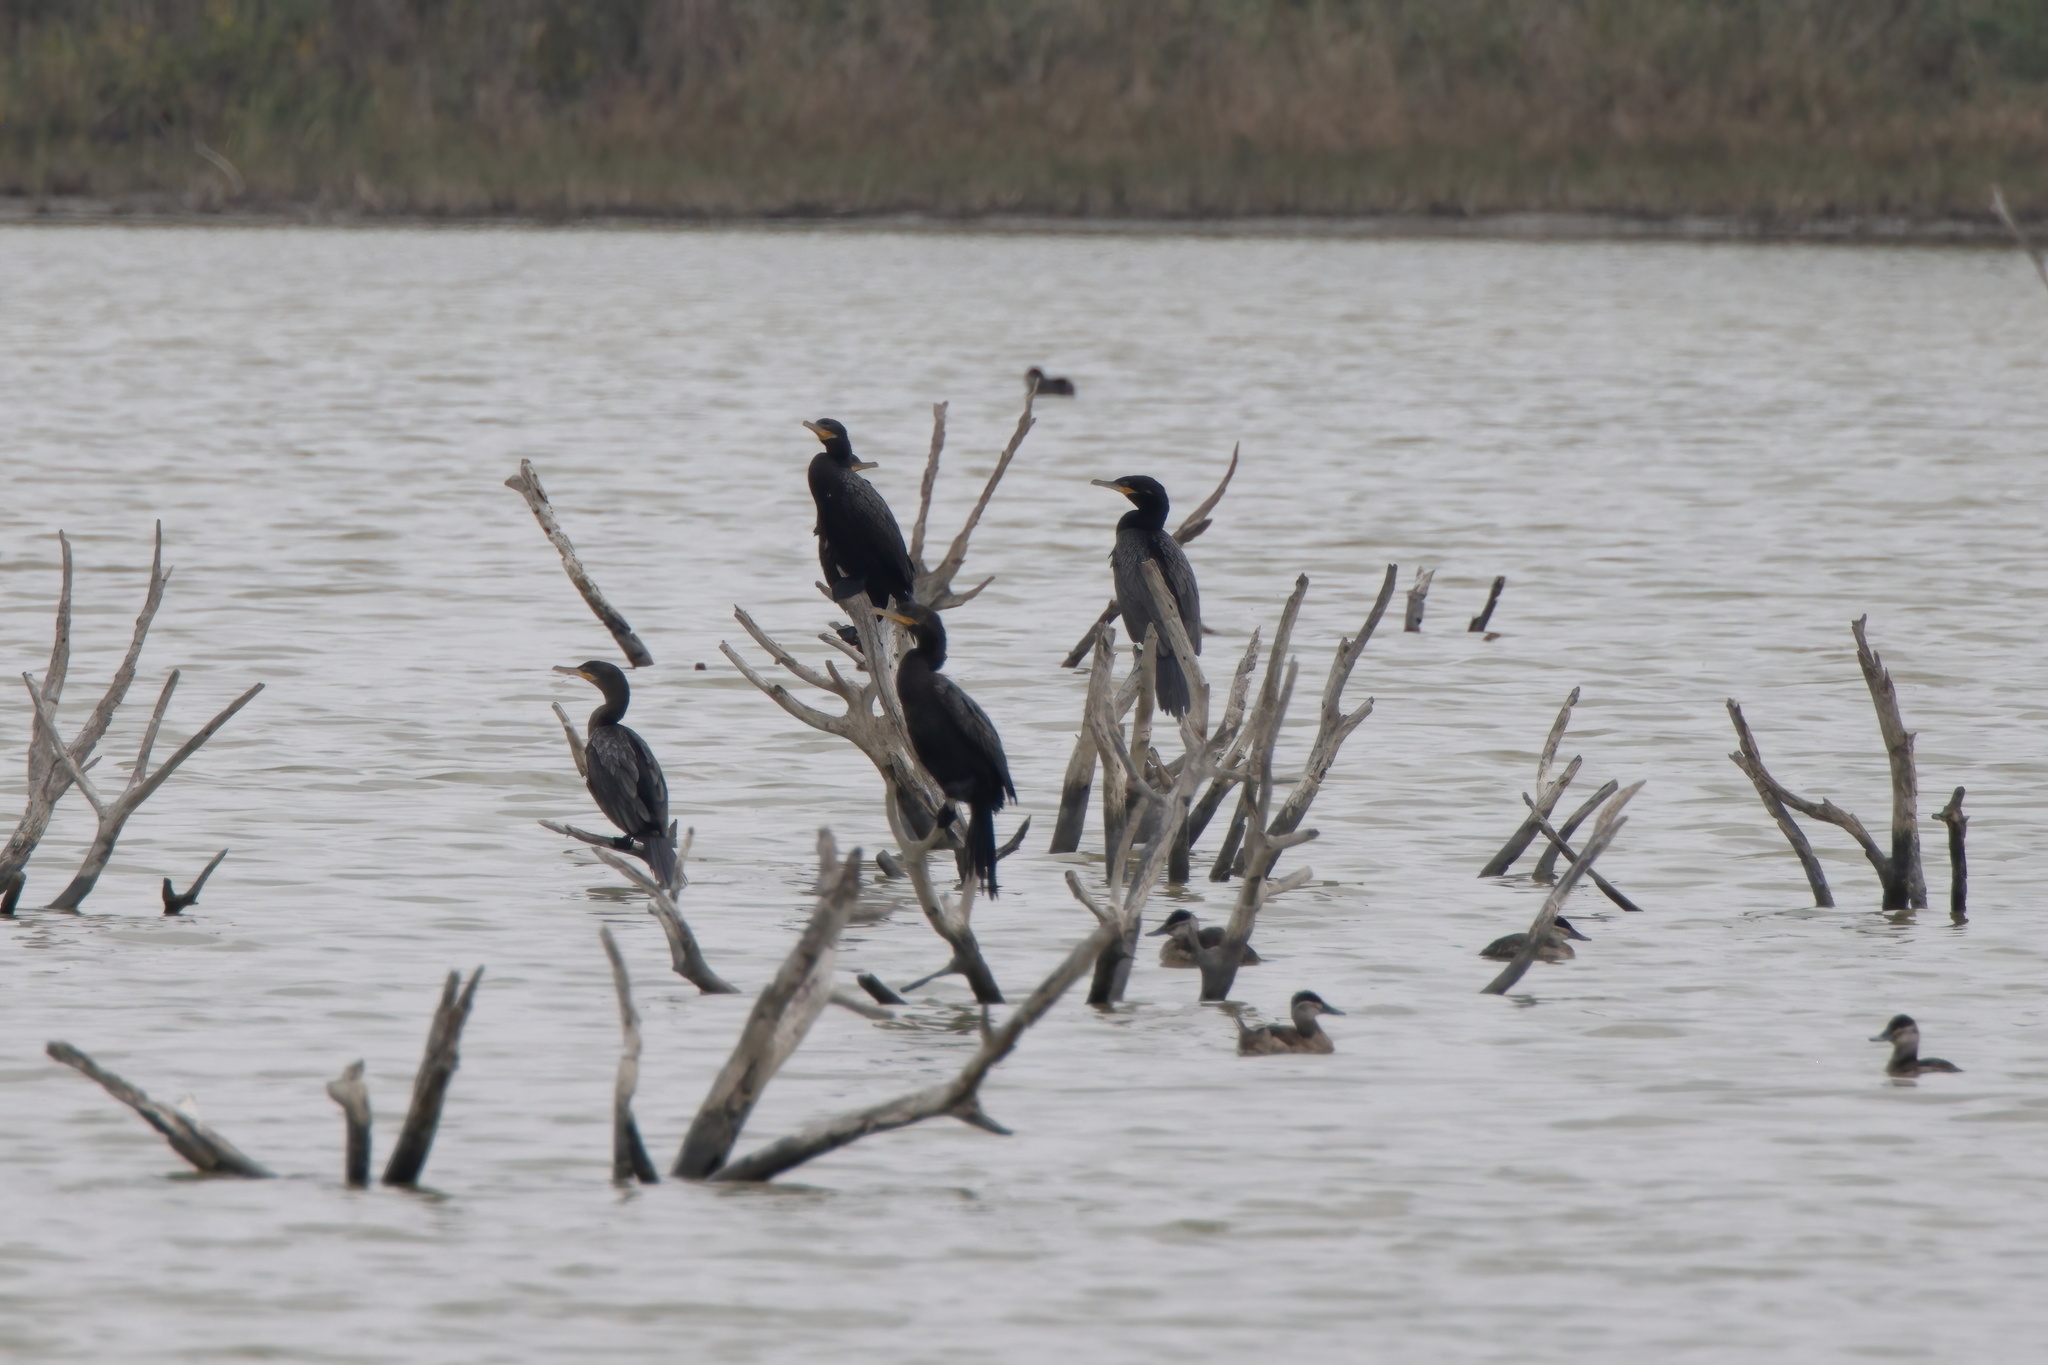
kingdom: Animalia
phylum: Chordata
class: Aves
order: Suliformes
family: Phalacrocoracidae
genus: Phalacrocorax
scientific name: Phalacrocorax brasilianus
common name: Neotropic cormorant
